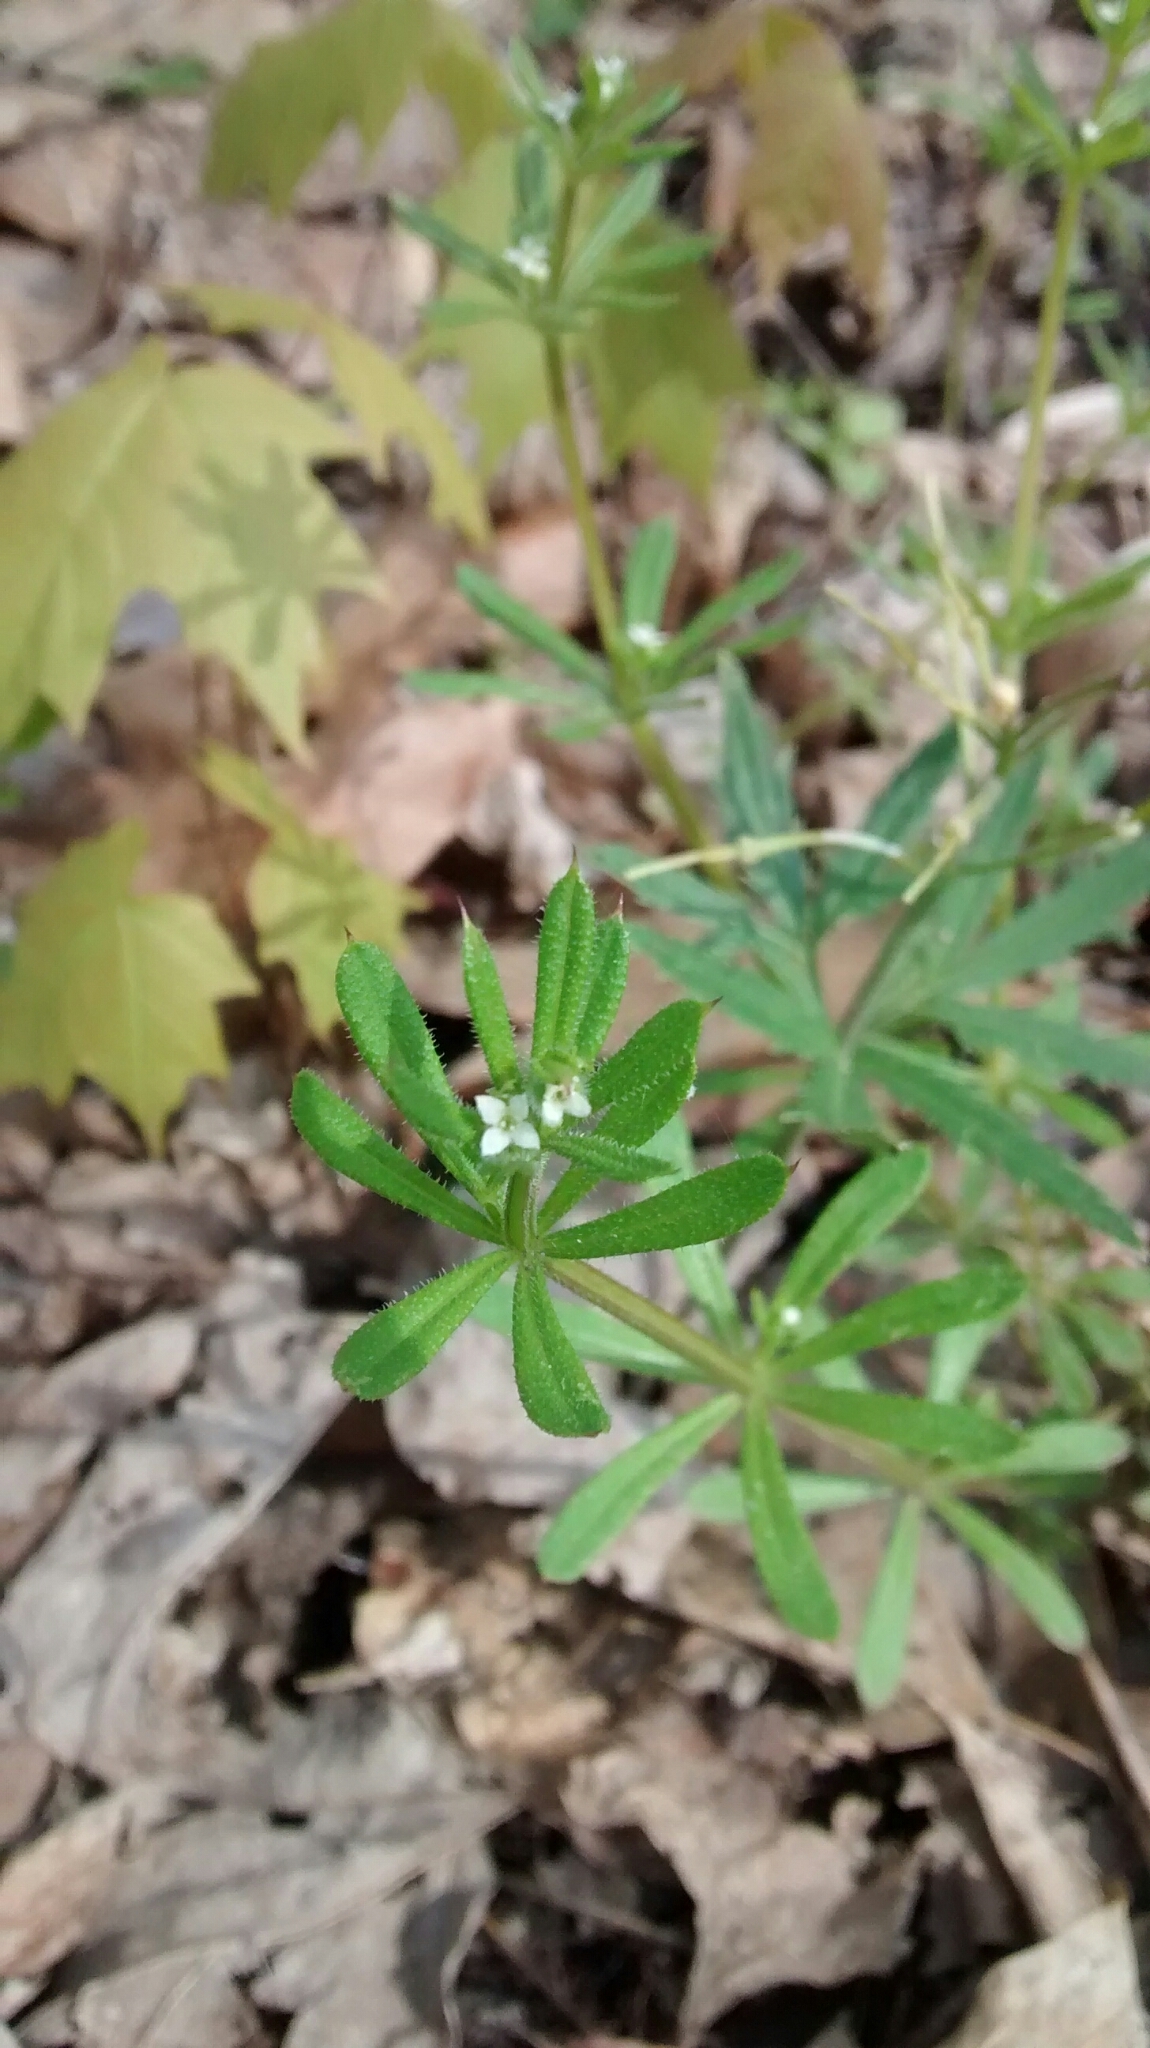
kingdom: Plantae
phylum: Tracheophyta
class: Magnoliopsida
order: Gentianales
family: Rubiaceae
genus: Galium
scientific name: Galium aparine
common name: Cleavers
